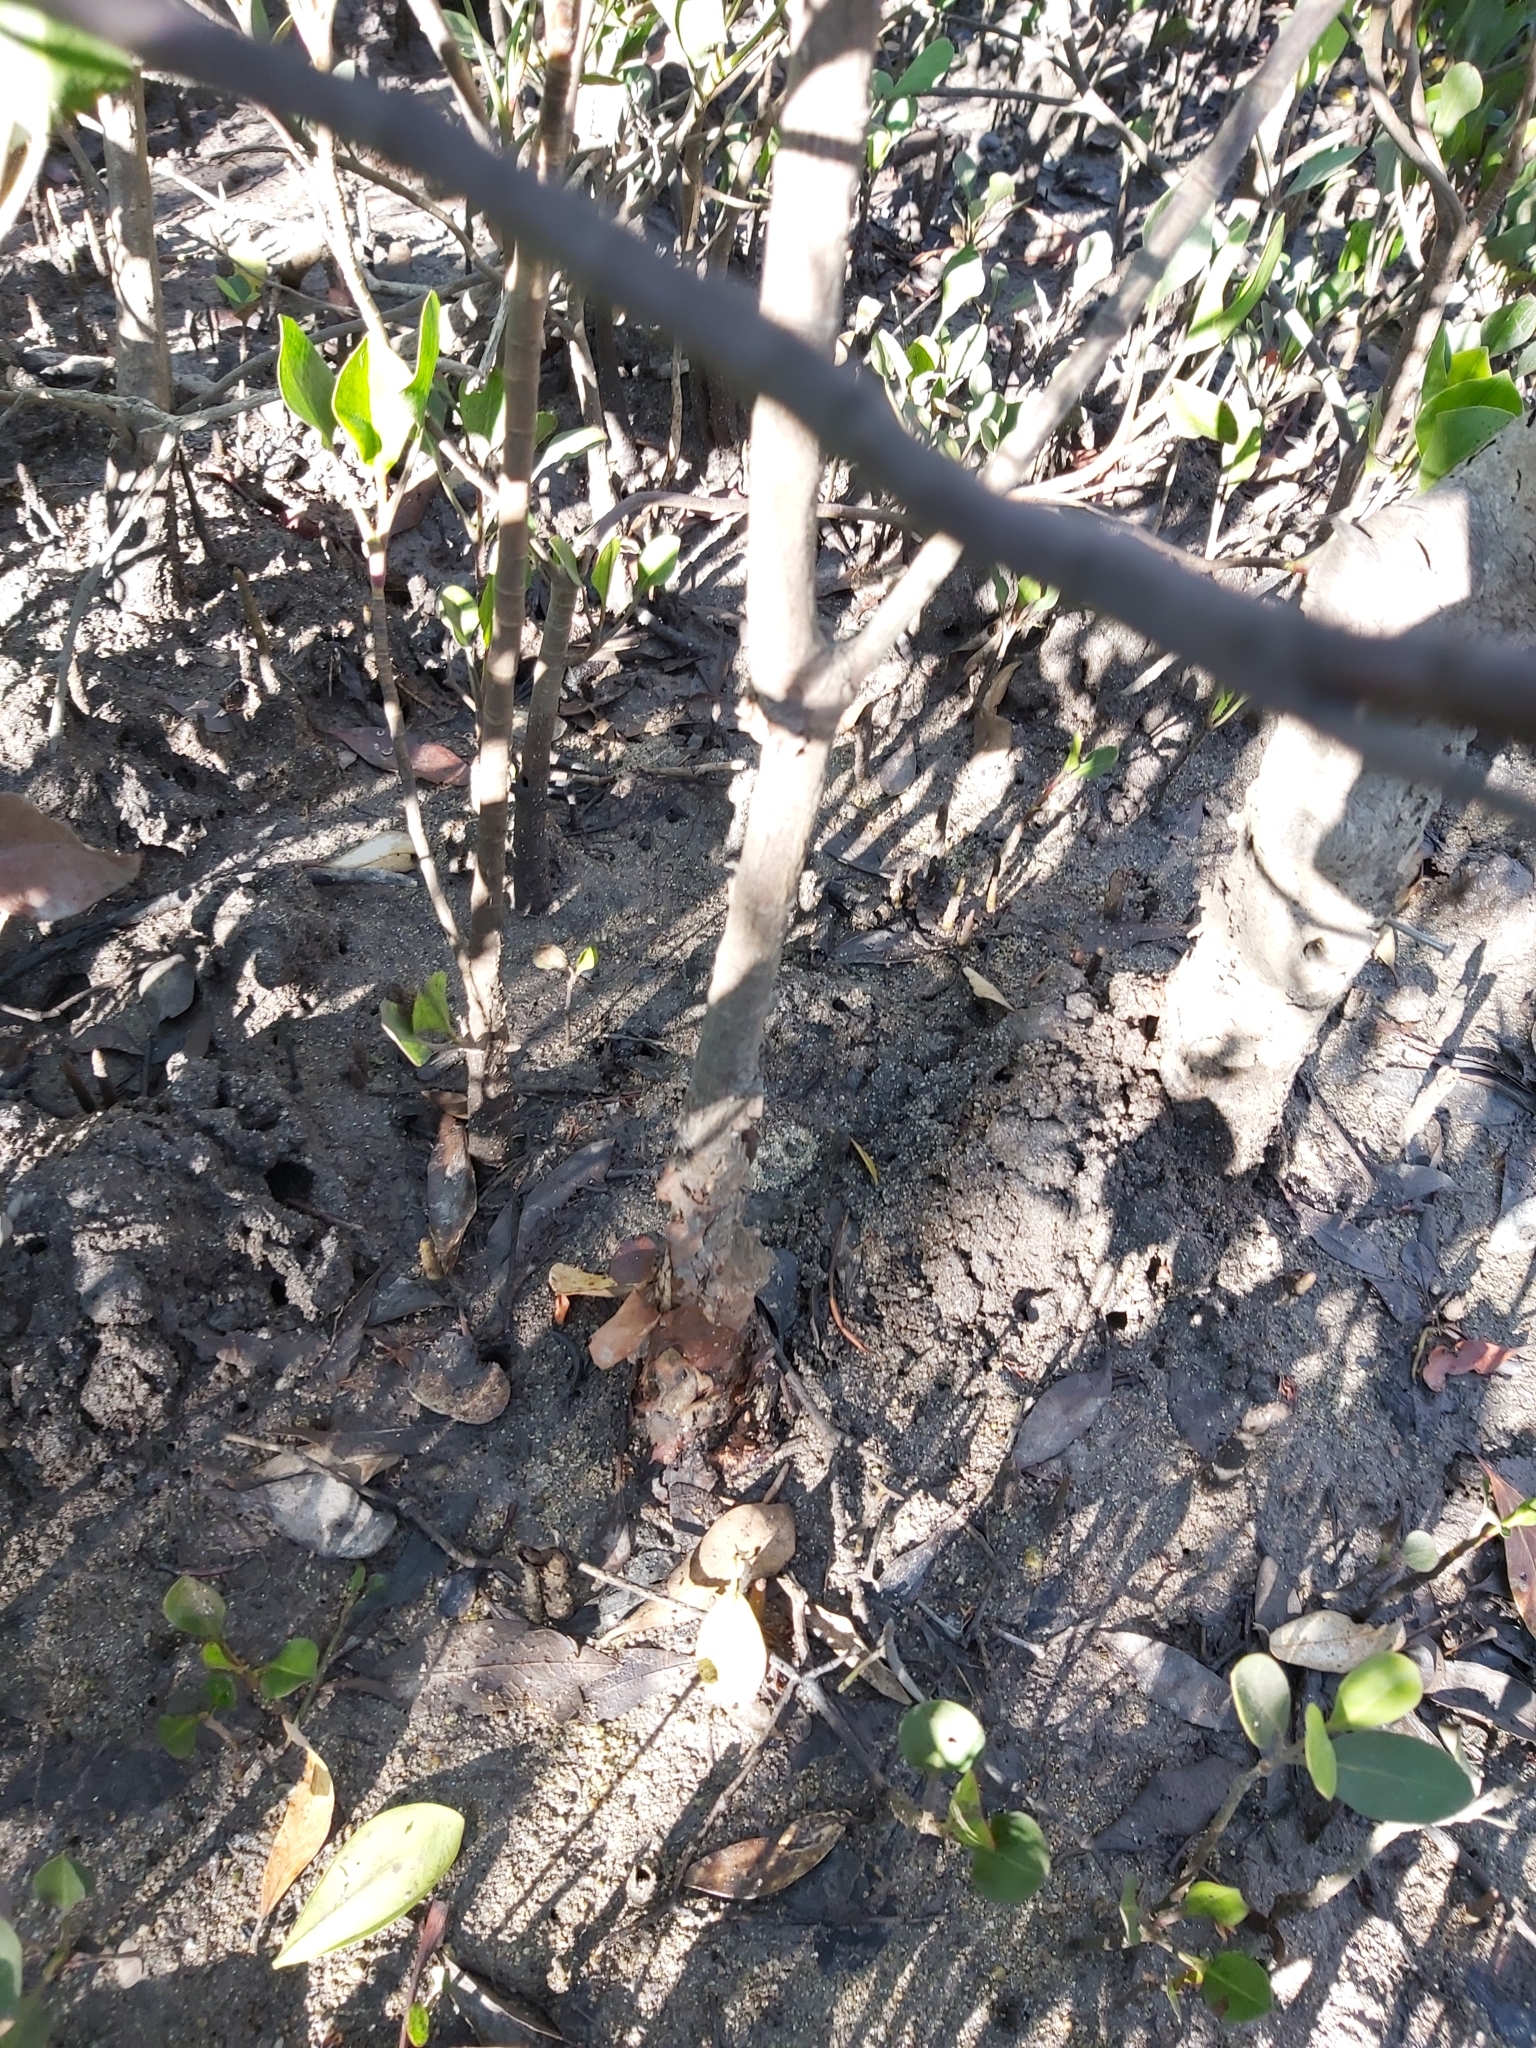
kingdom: Plantae
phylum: Tracheophyta
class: Magnoliopsida
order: Malpighiales
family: Rhizophoraceae
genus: Bruguiera
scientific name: Bruguiera exaristata
